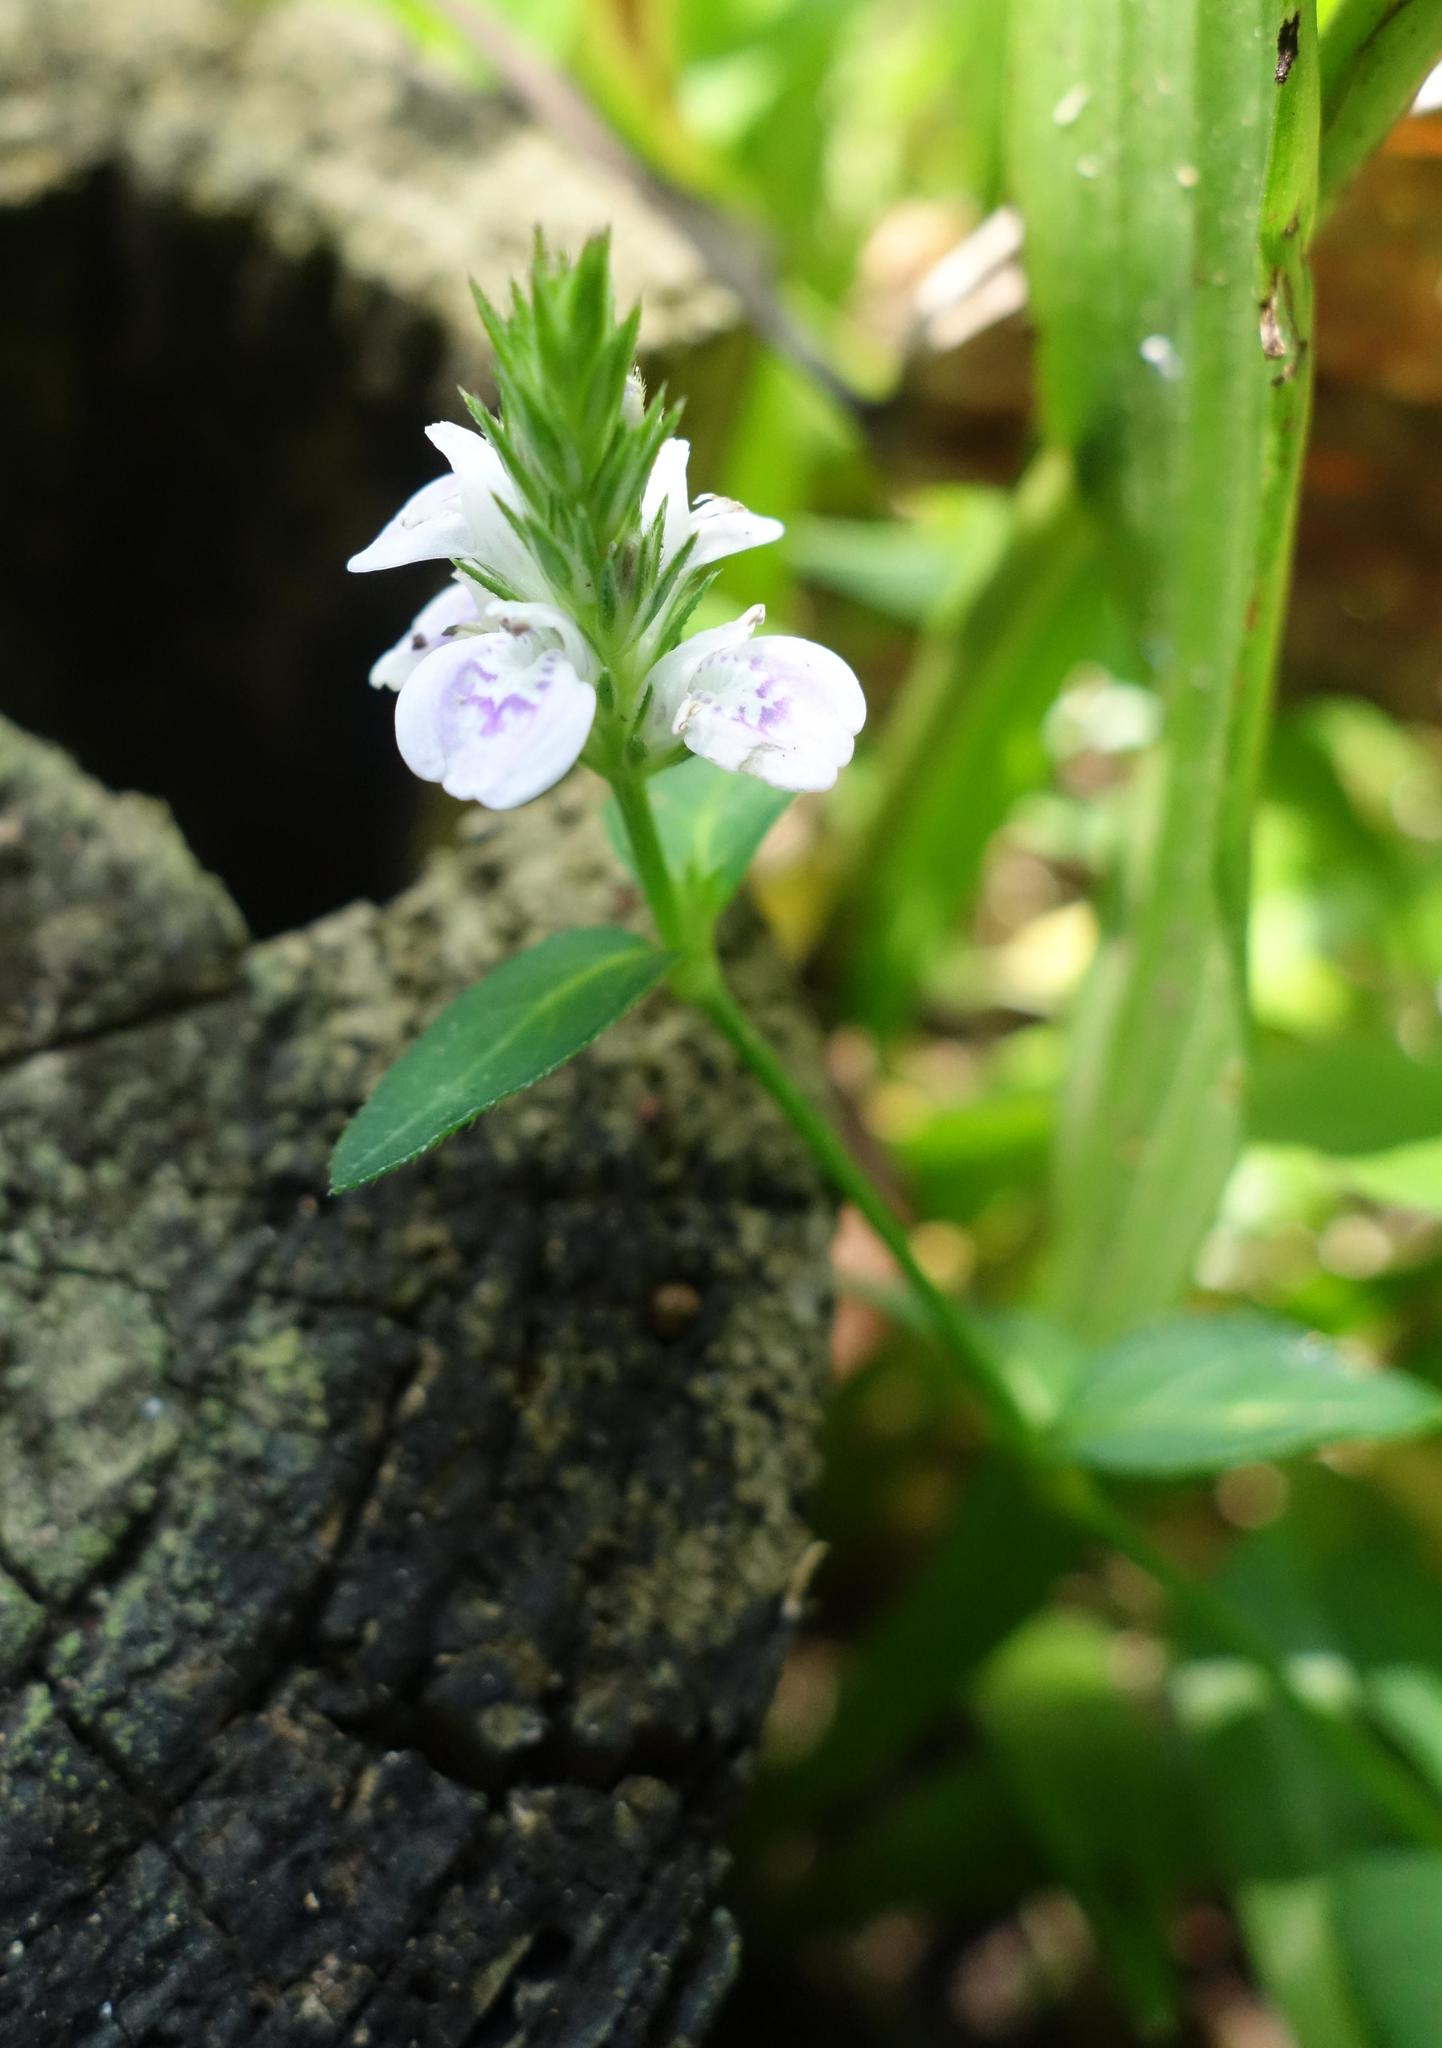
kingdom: Plantae
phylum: Tracheophyta
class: Magnoliopsida
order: Lamiales
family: Acanthaceae
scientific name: Acanthaceae
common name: Acanthaceae
